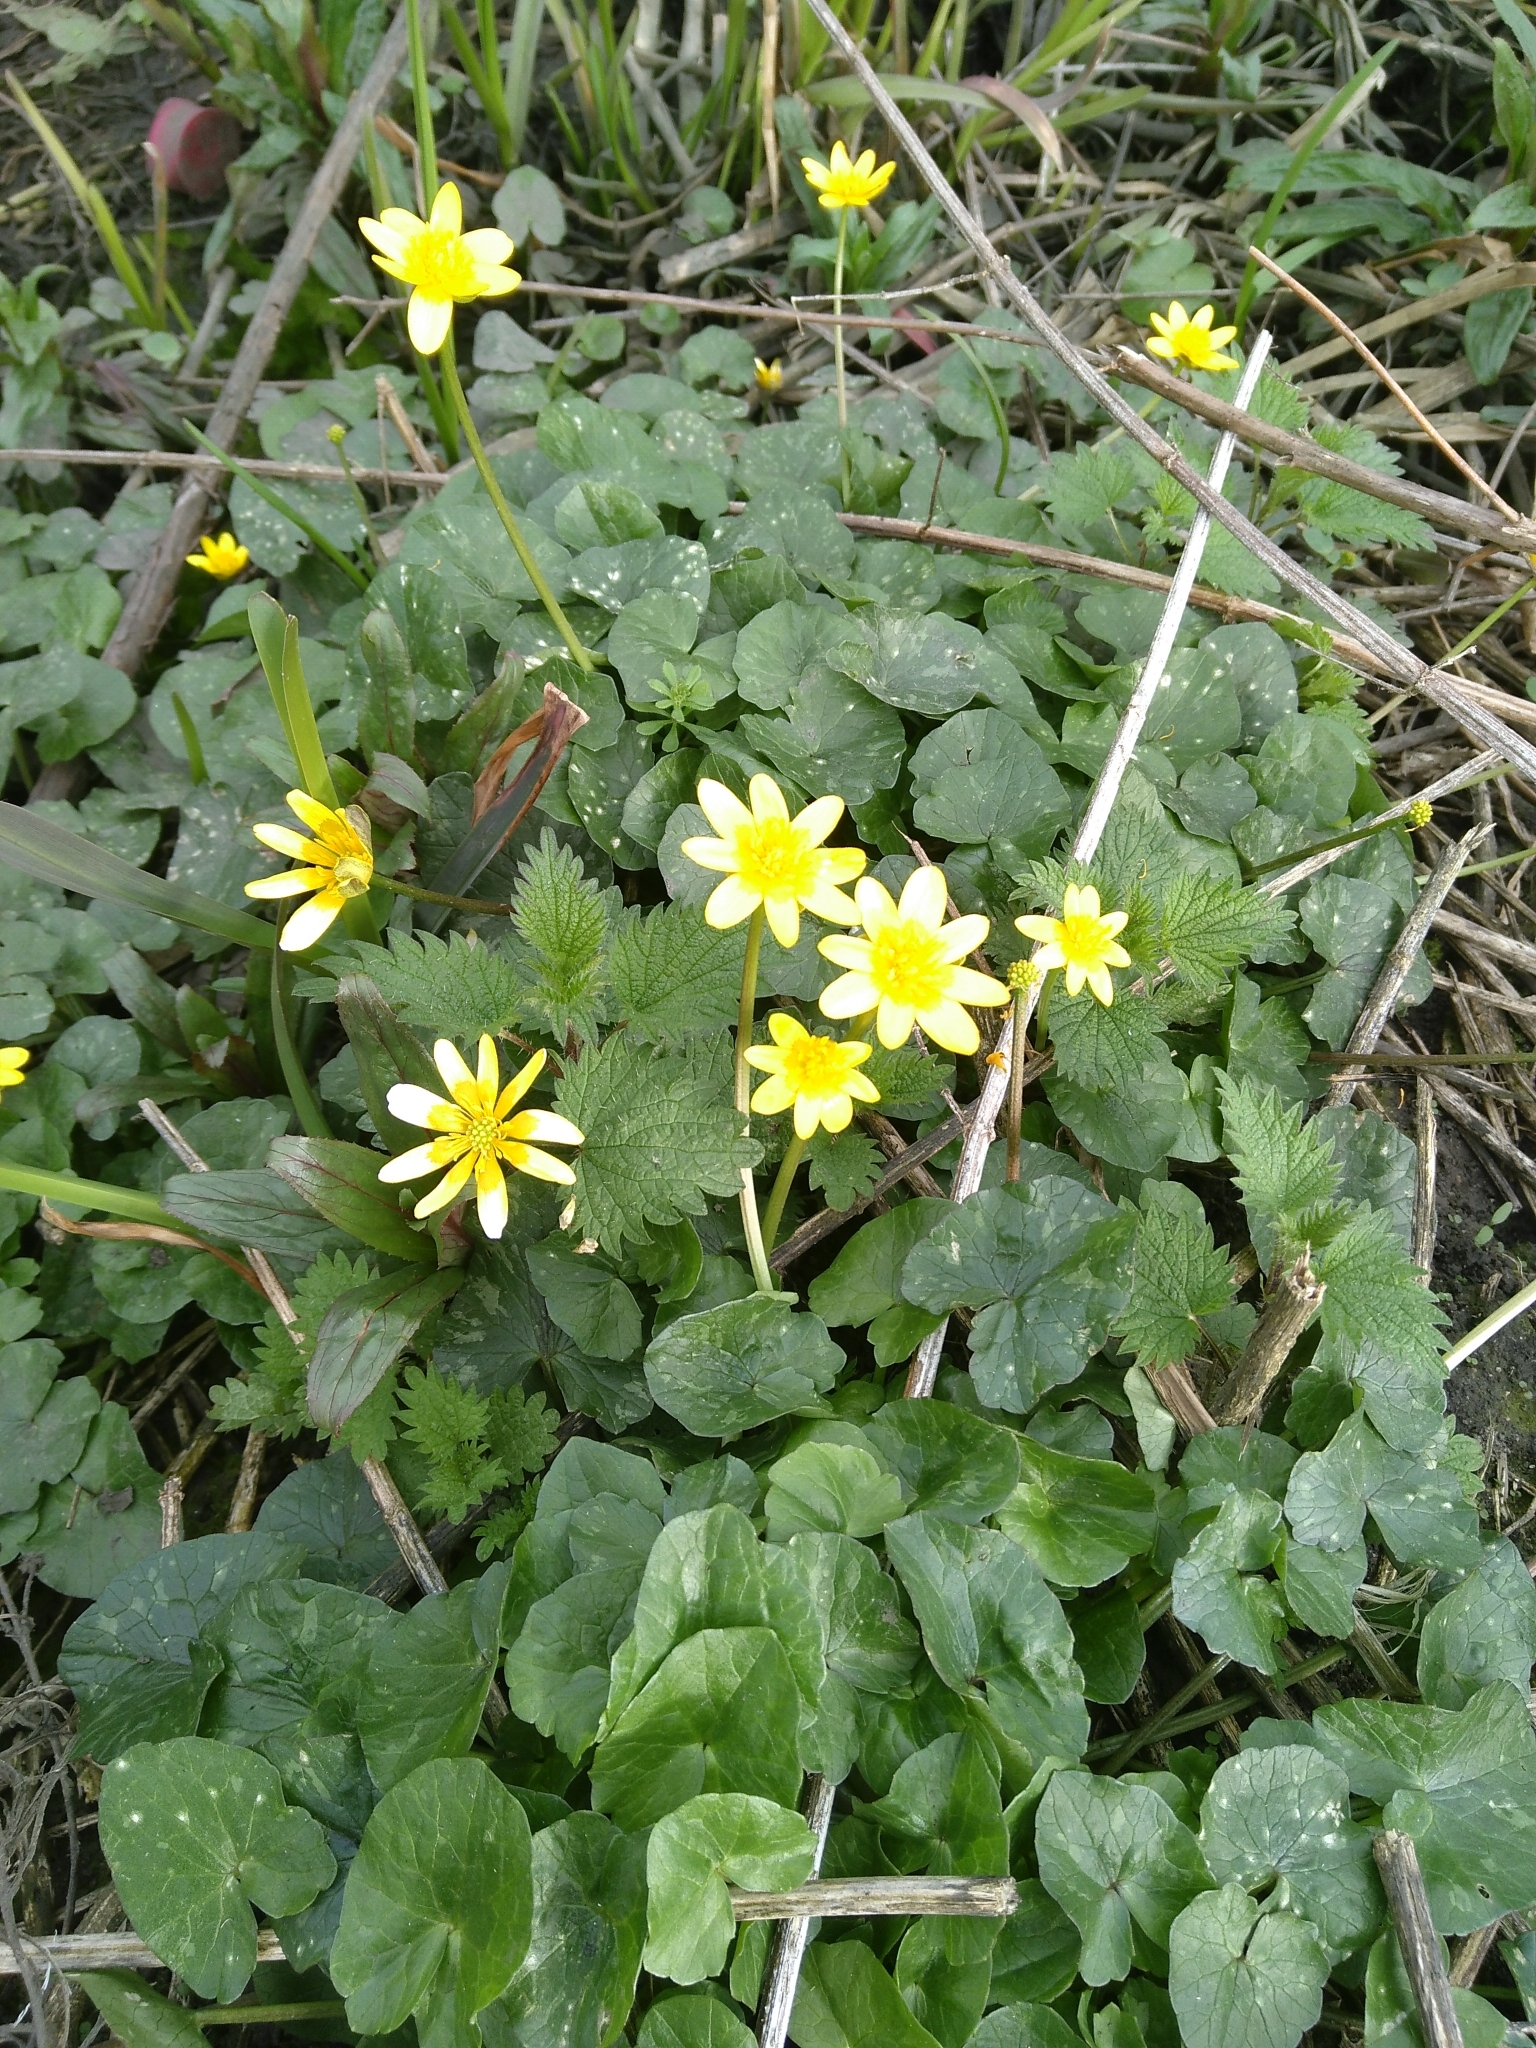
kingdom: Plantae
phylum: Tracheophyta
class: Magnoliopsida
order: Ranunculales
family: Ranunculaceae
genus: Ficaria
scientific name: Ficaria verna
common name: Lesser celandine
